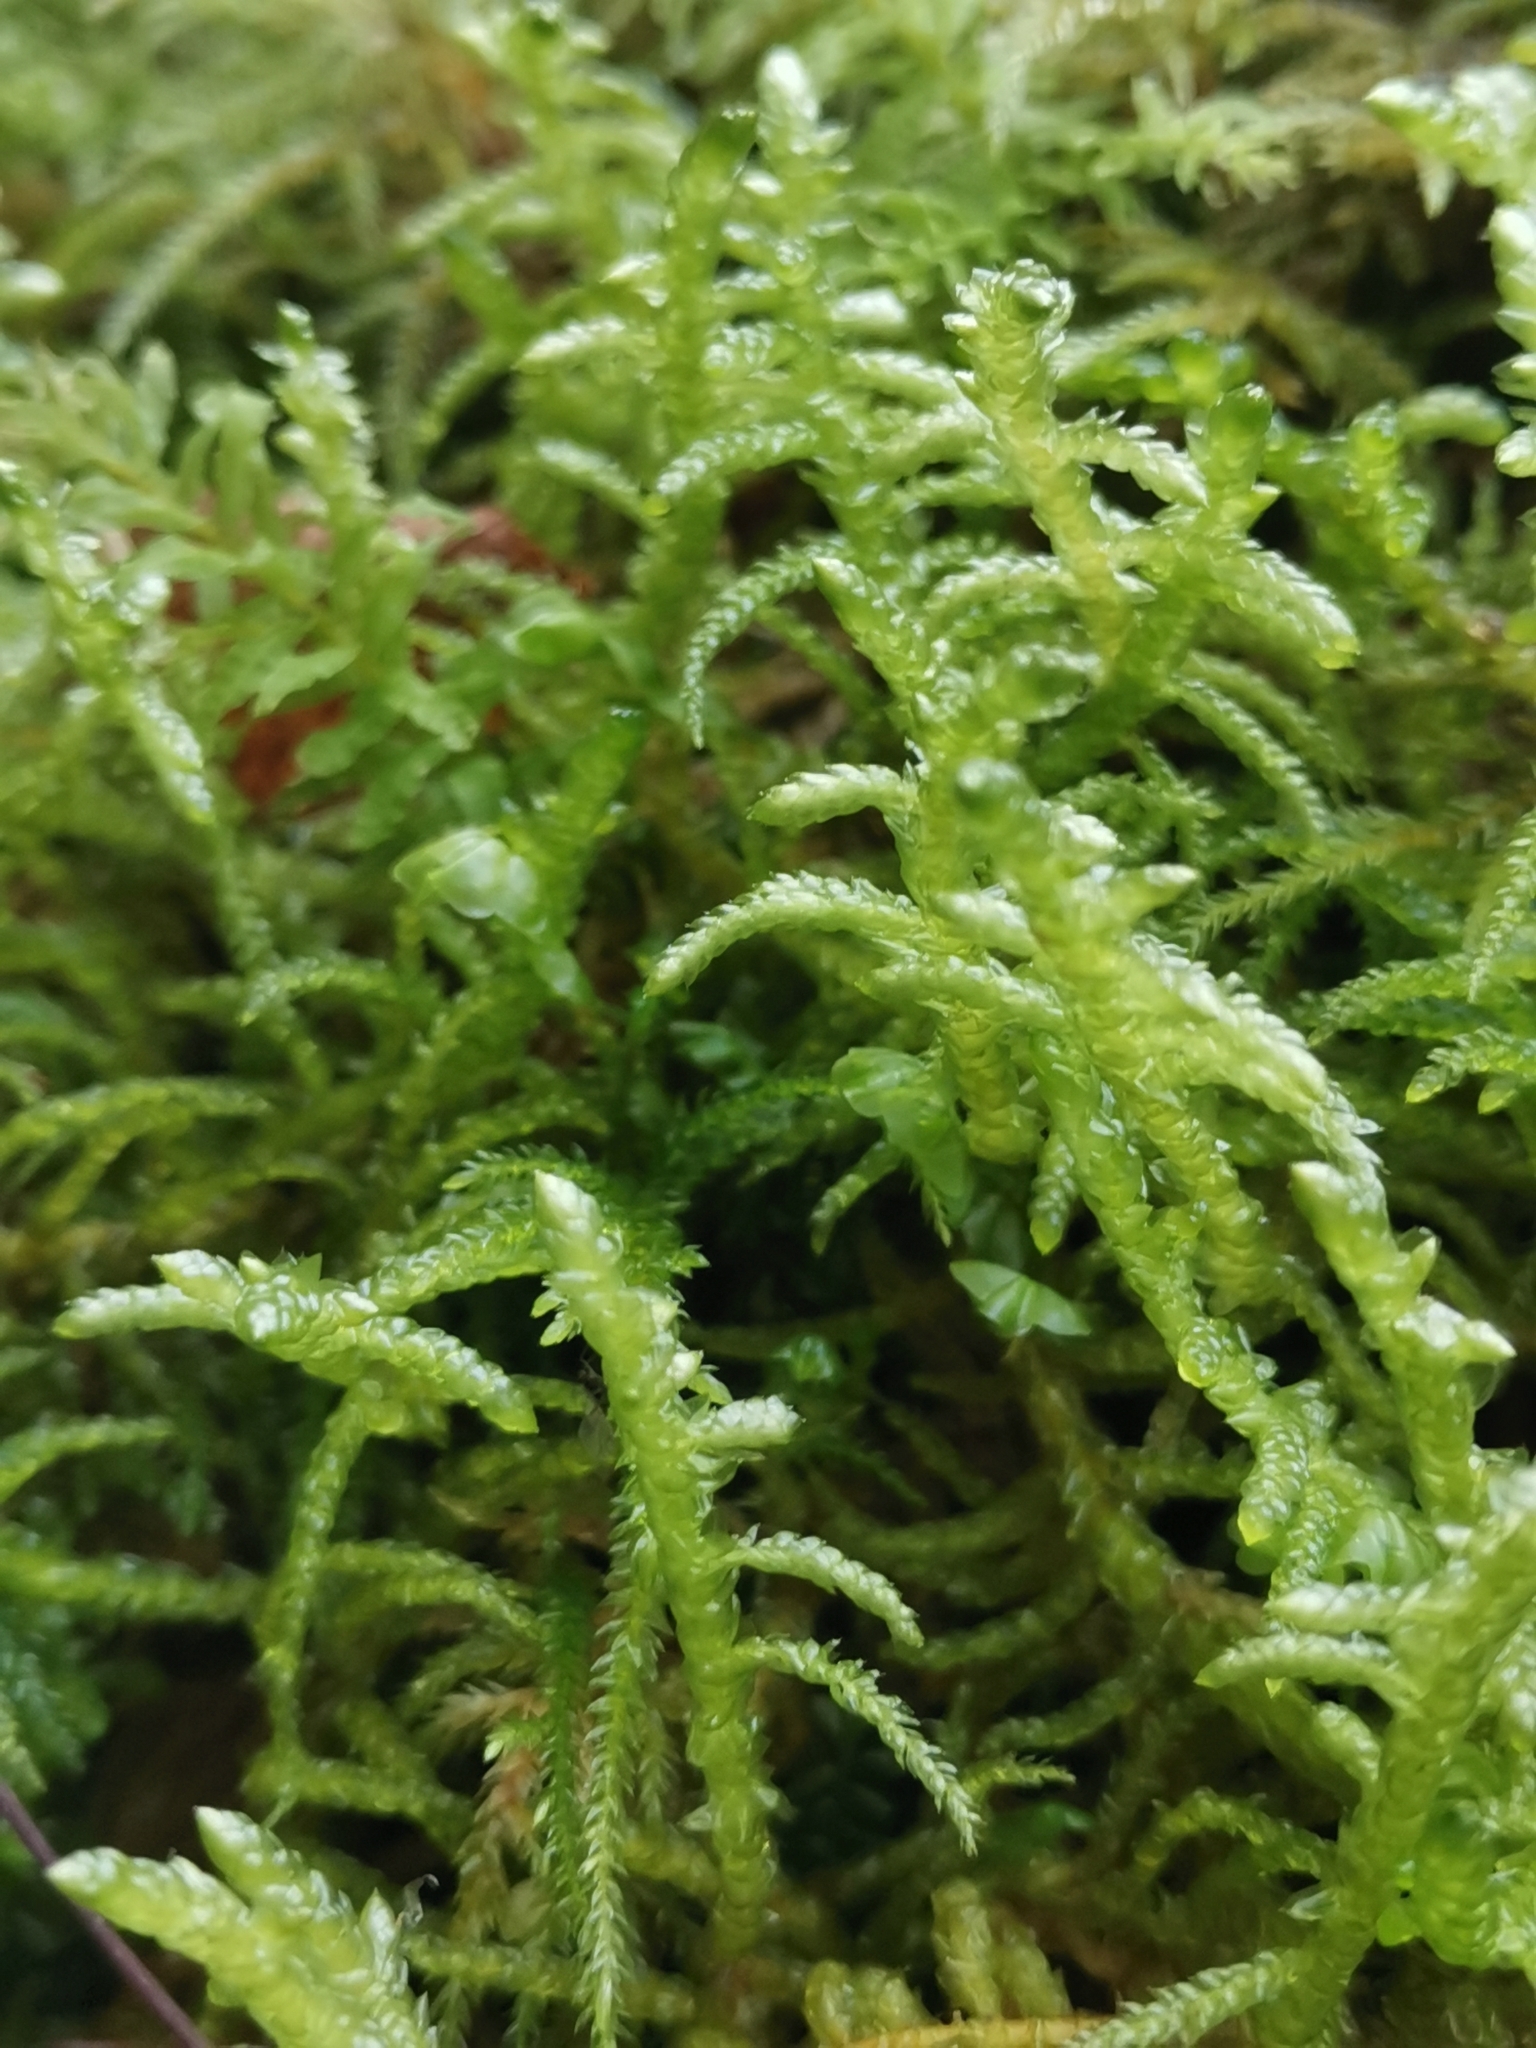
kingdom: Plantae
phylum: Bryophyta
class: Bryopsida
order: Hypnales
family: Brachytheciaceae
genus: Pseudoscleropodium
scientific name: Pseudoscleropodium purum
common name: Neat feather-moss
